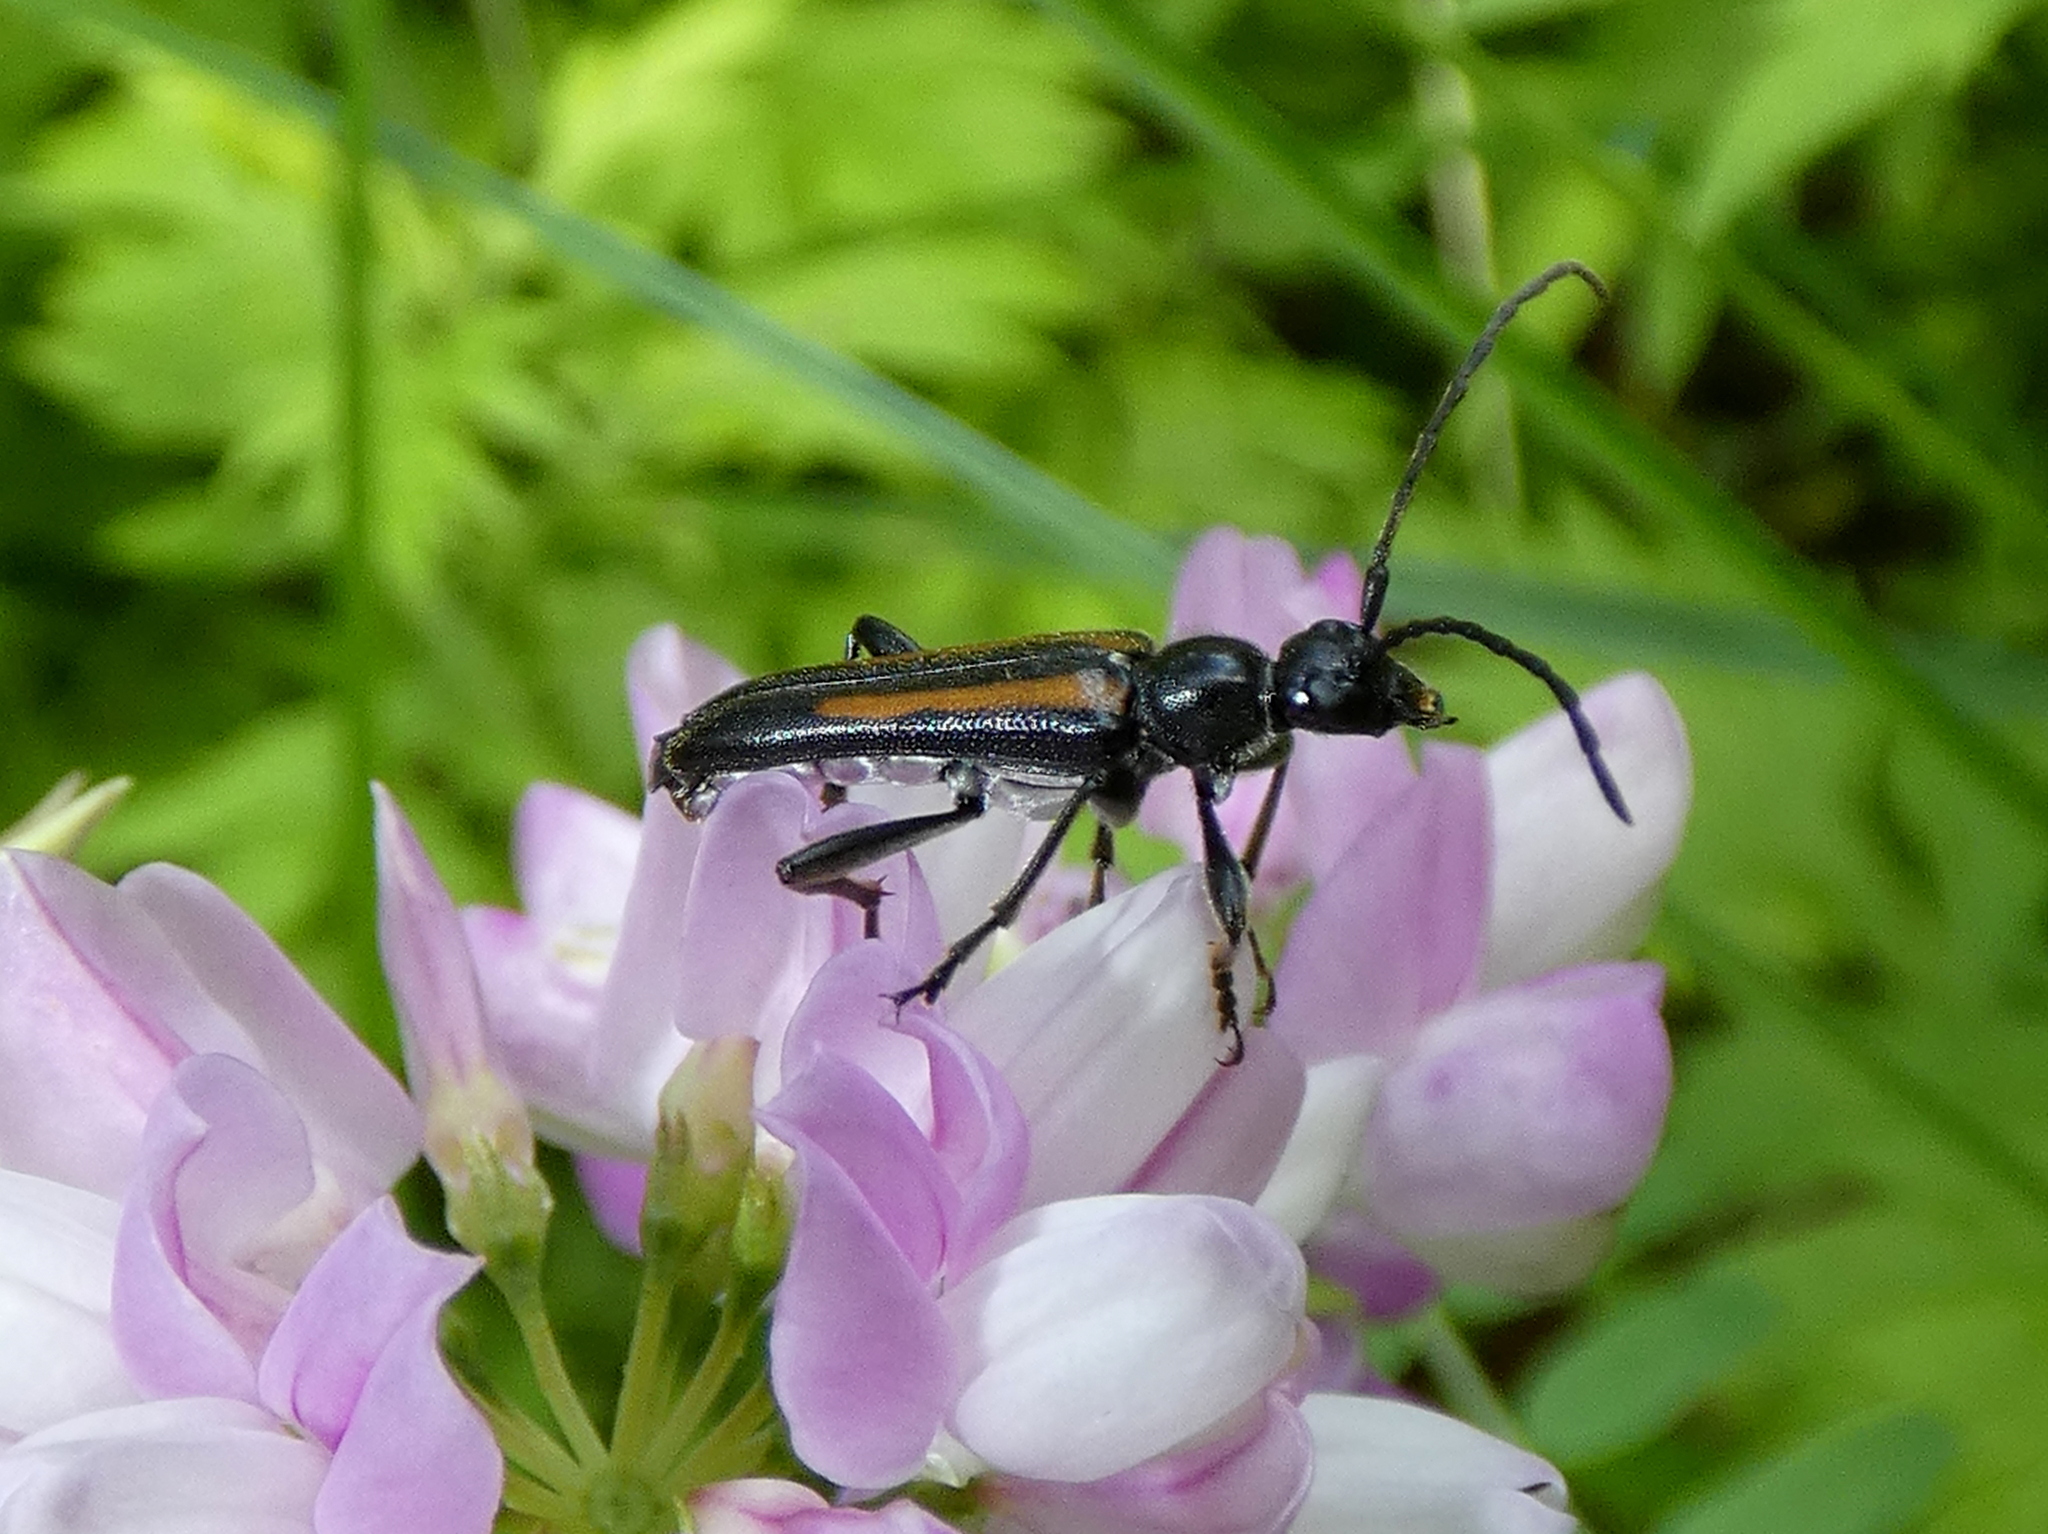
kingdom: Animalia
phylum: Arthropoda
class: Insecta
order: Coleoptera
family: Cerambycidae
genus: Strangalepta
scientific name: Strangalepta abbreviata
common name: Strangalepta flower longhorn beetle
